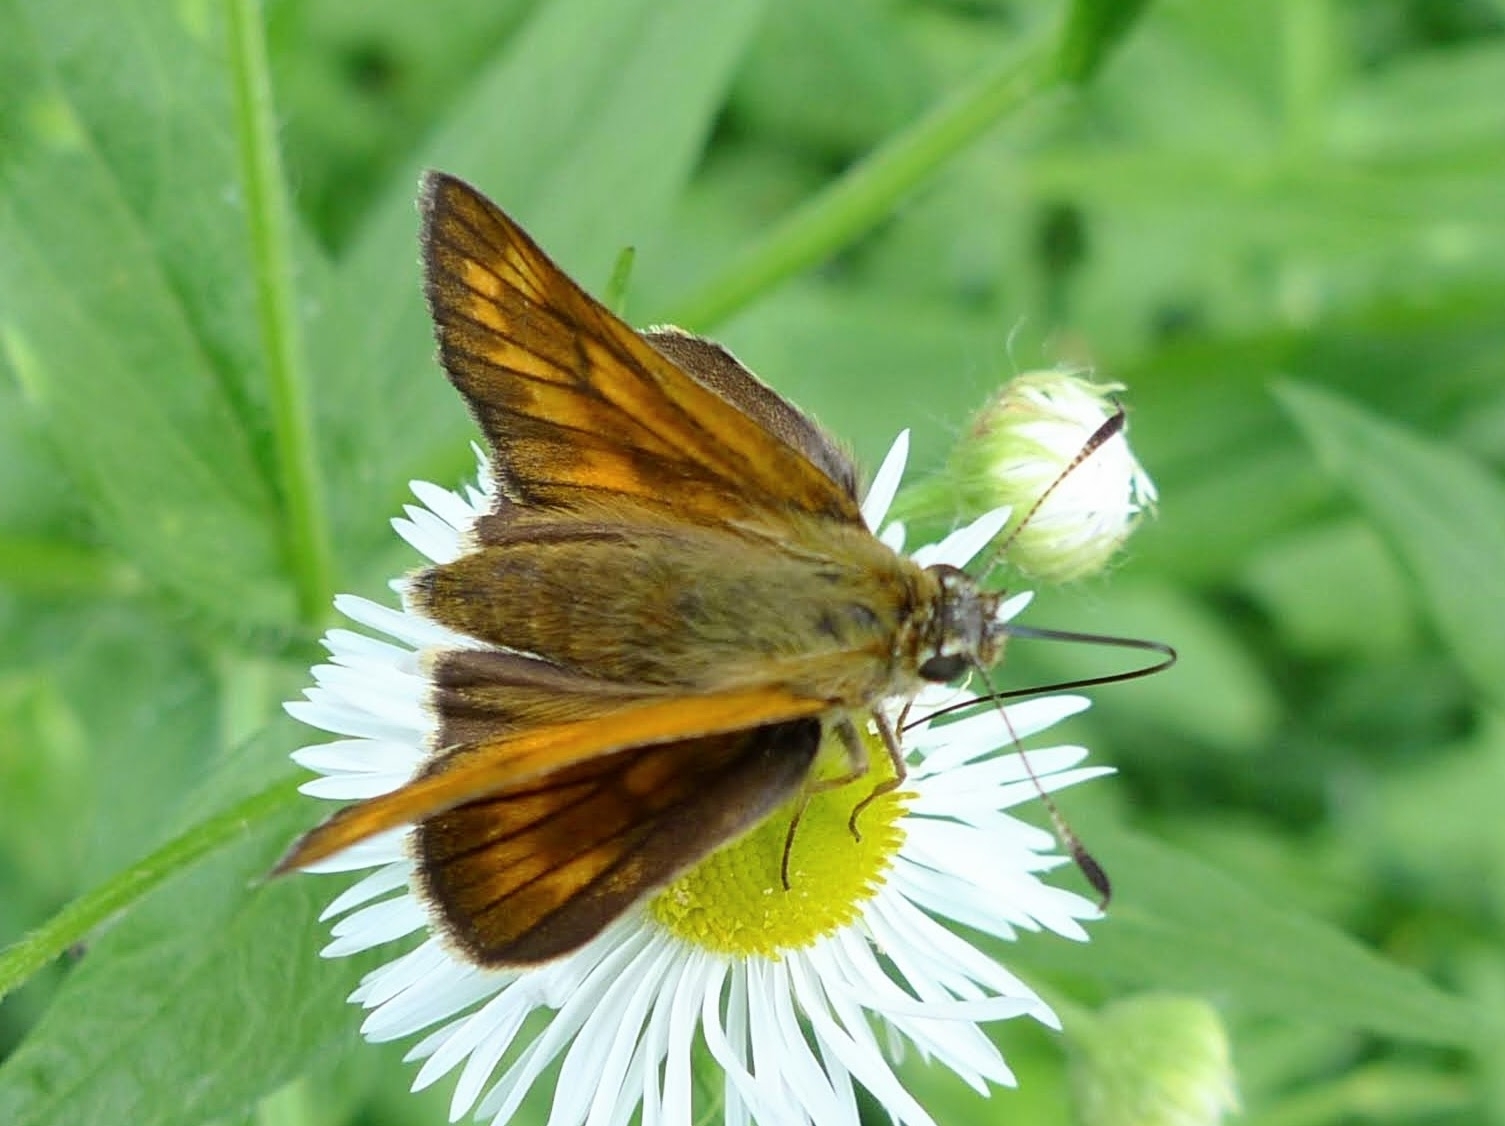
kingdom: Animalia
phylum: Arthropoda
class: Insecta
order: Lepidoptera
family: Hesperiidae
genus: Ochlodes
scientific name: Ochlodes venata
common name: Large skipper
